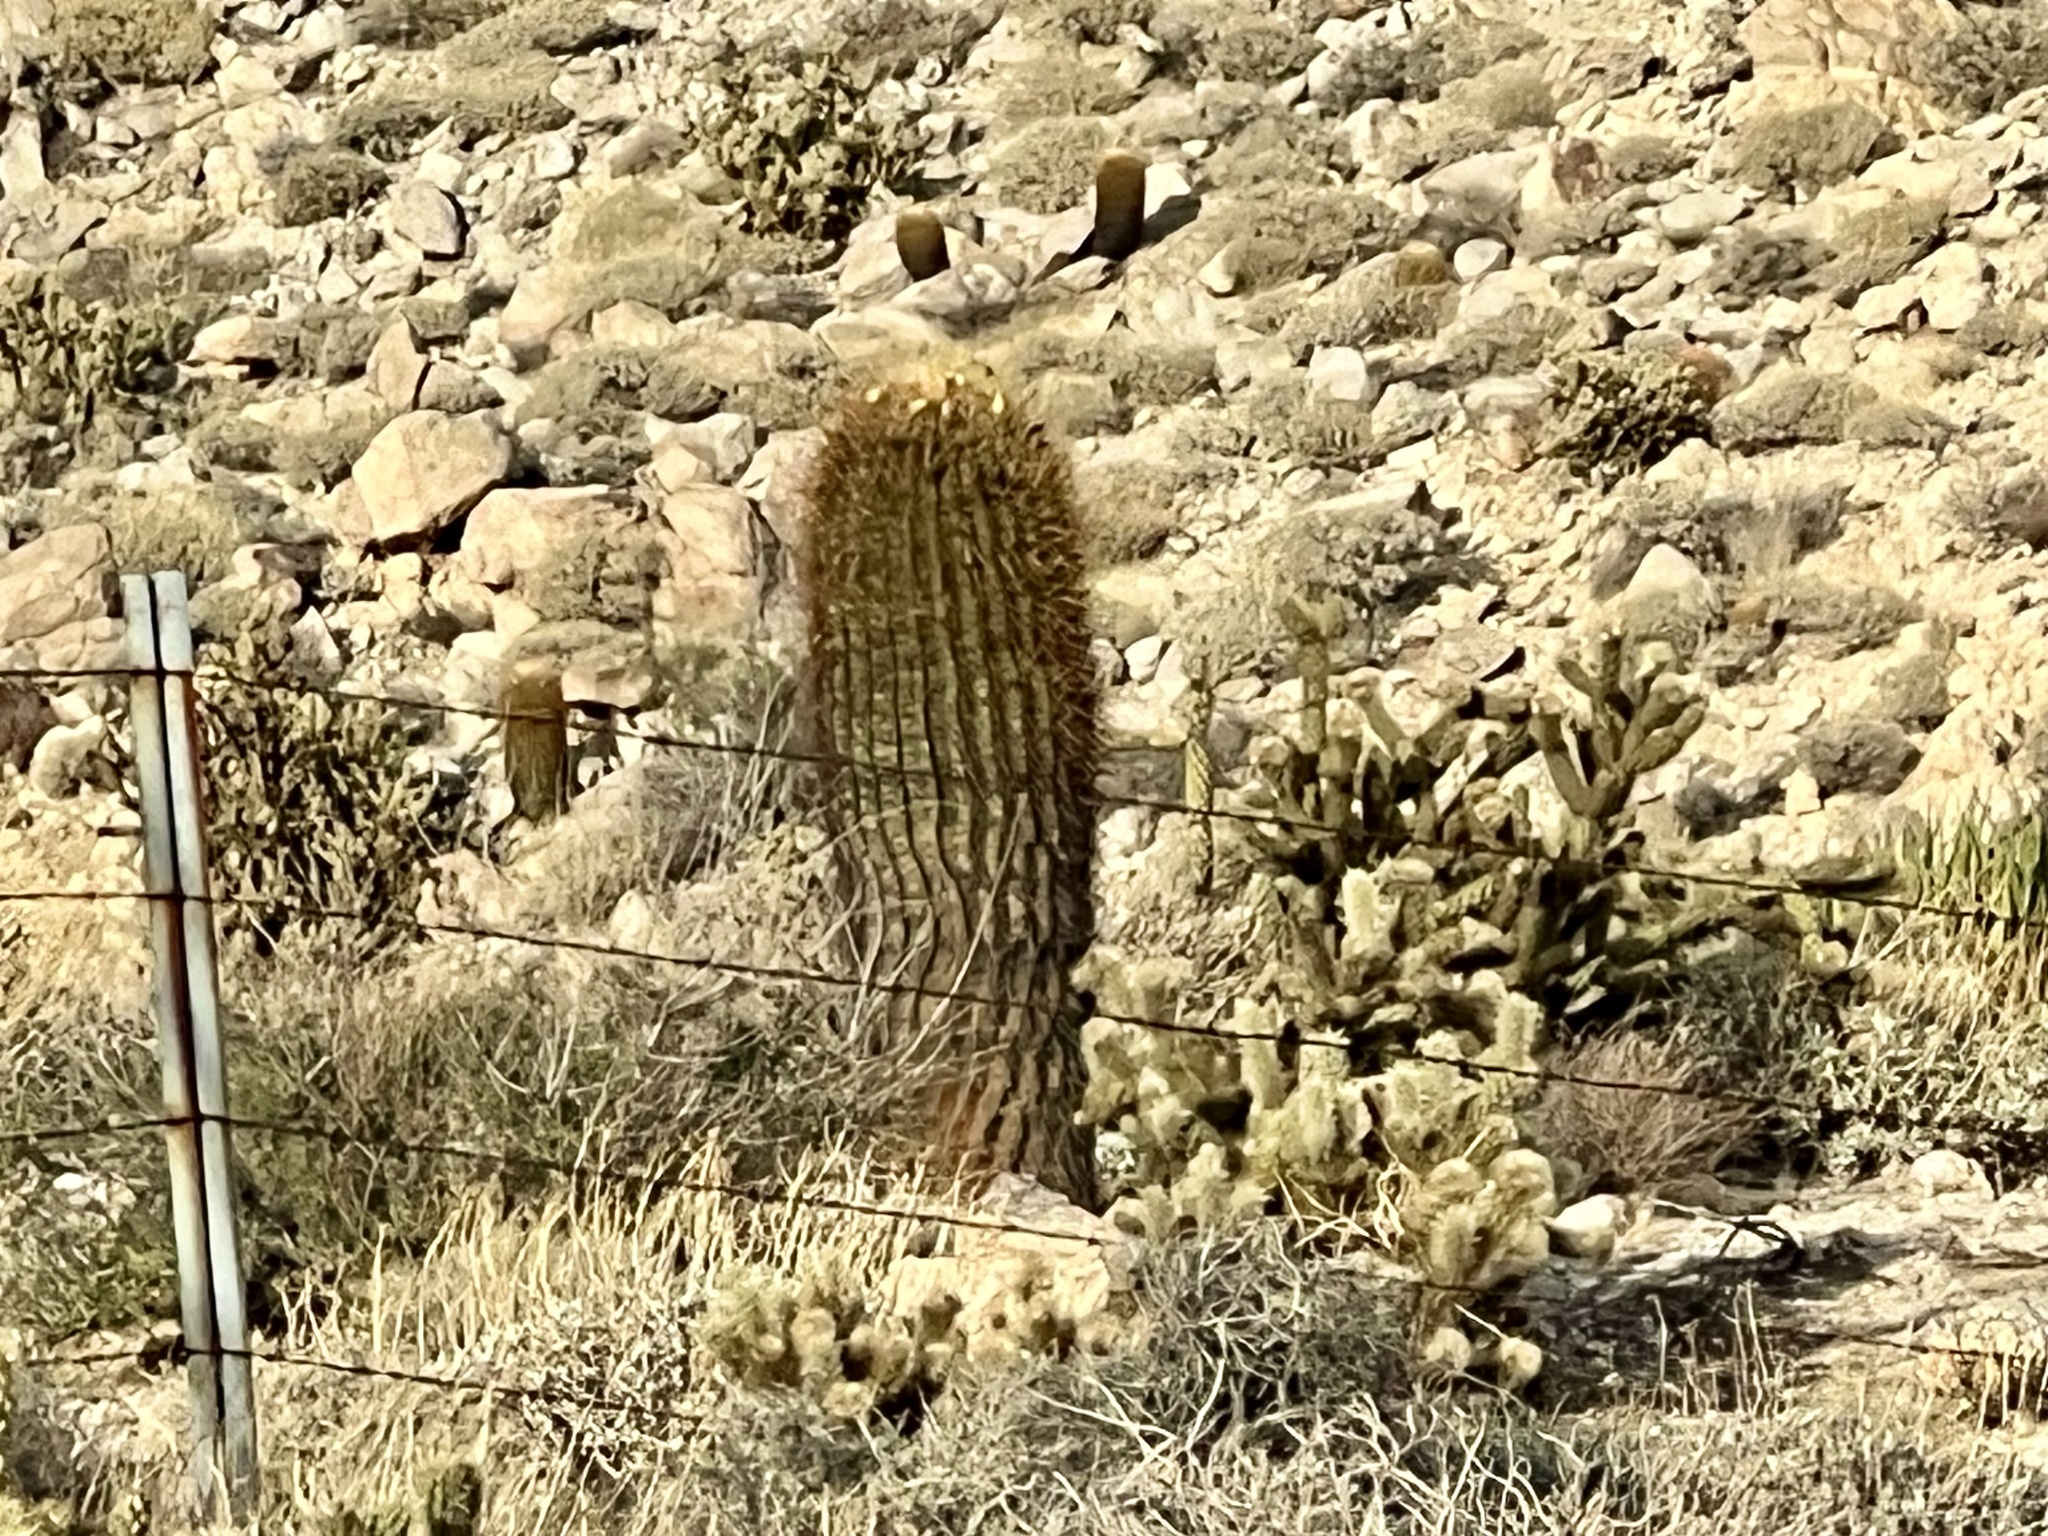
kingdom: Plantae
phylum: Tracheophyta
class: Magnoliopsida
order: Caryophyllales
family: Cactaceae
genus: Ferocactus
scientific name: Ferocactus cylindraceus
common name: California barrel cactus
